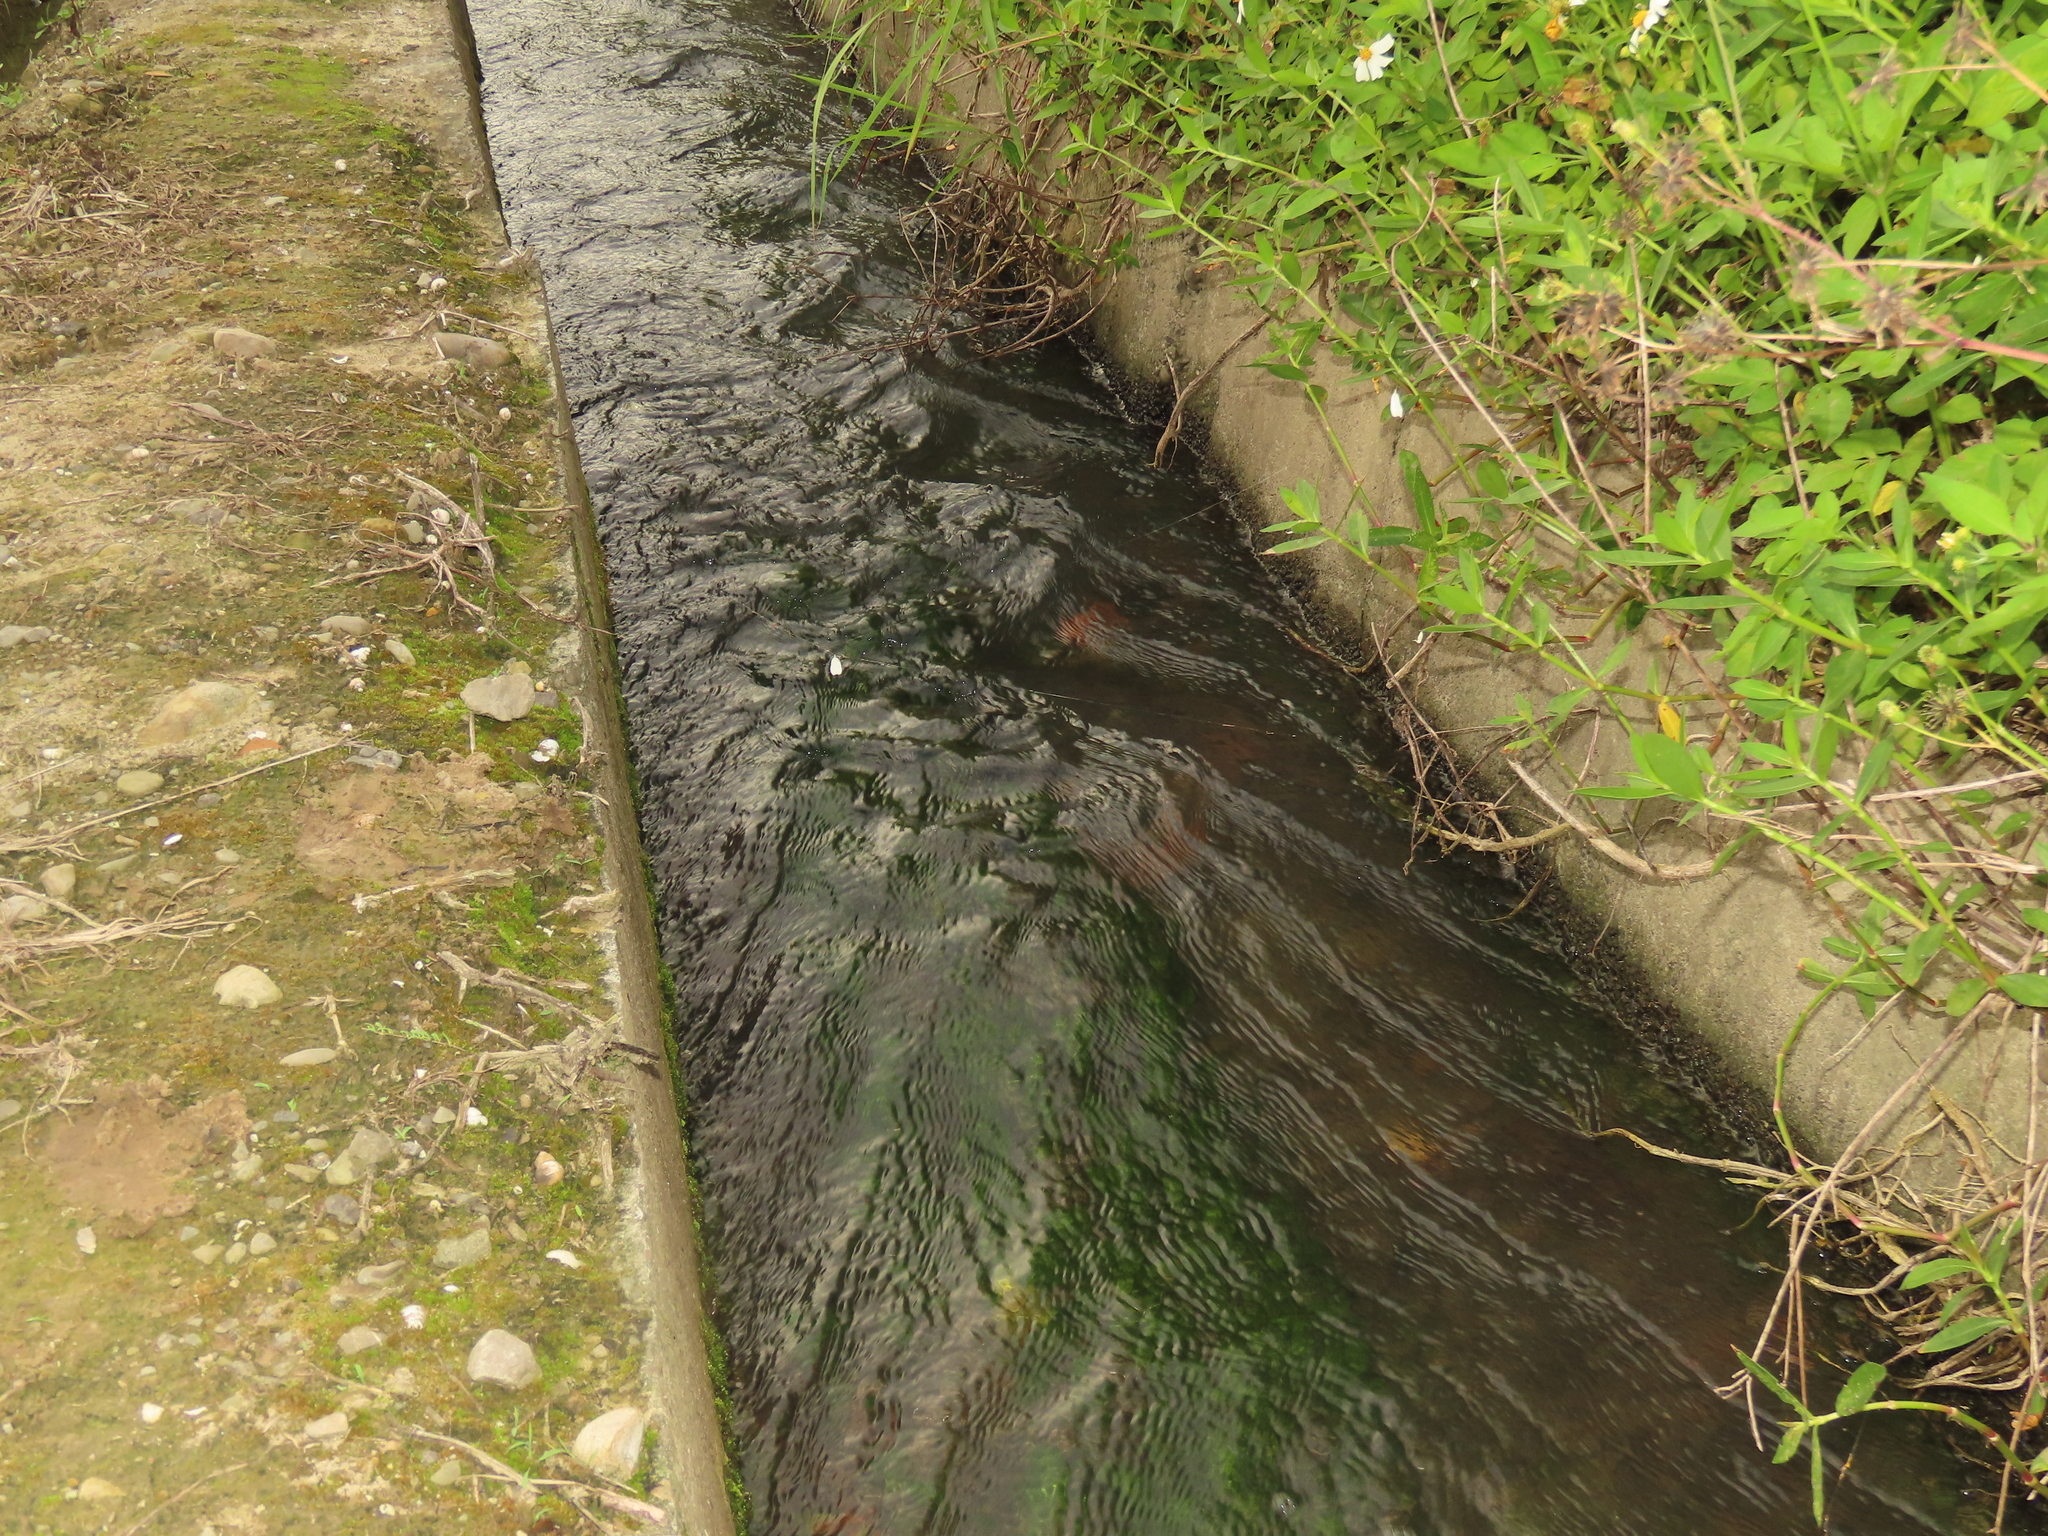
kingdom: Plantae
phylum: Tracheophyta
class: Magnoliopsida
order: Saxifragales
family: Haloragaceae
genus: Myriophyllum
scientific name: Myriophyllum spicatum
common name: Spiked water-milfoil
